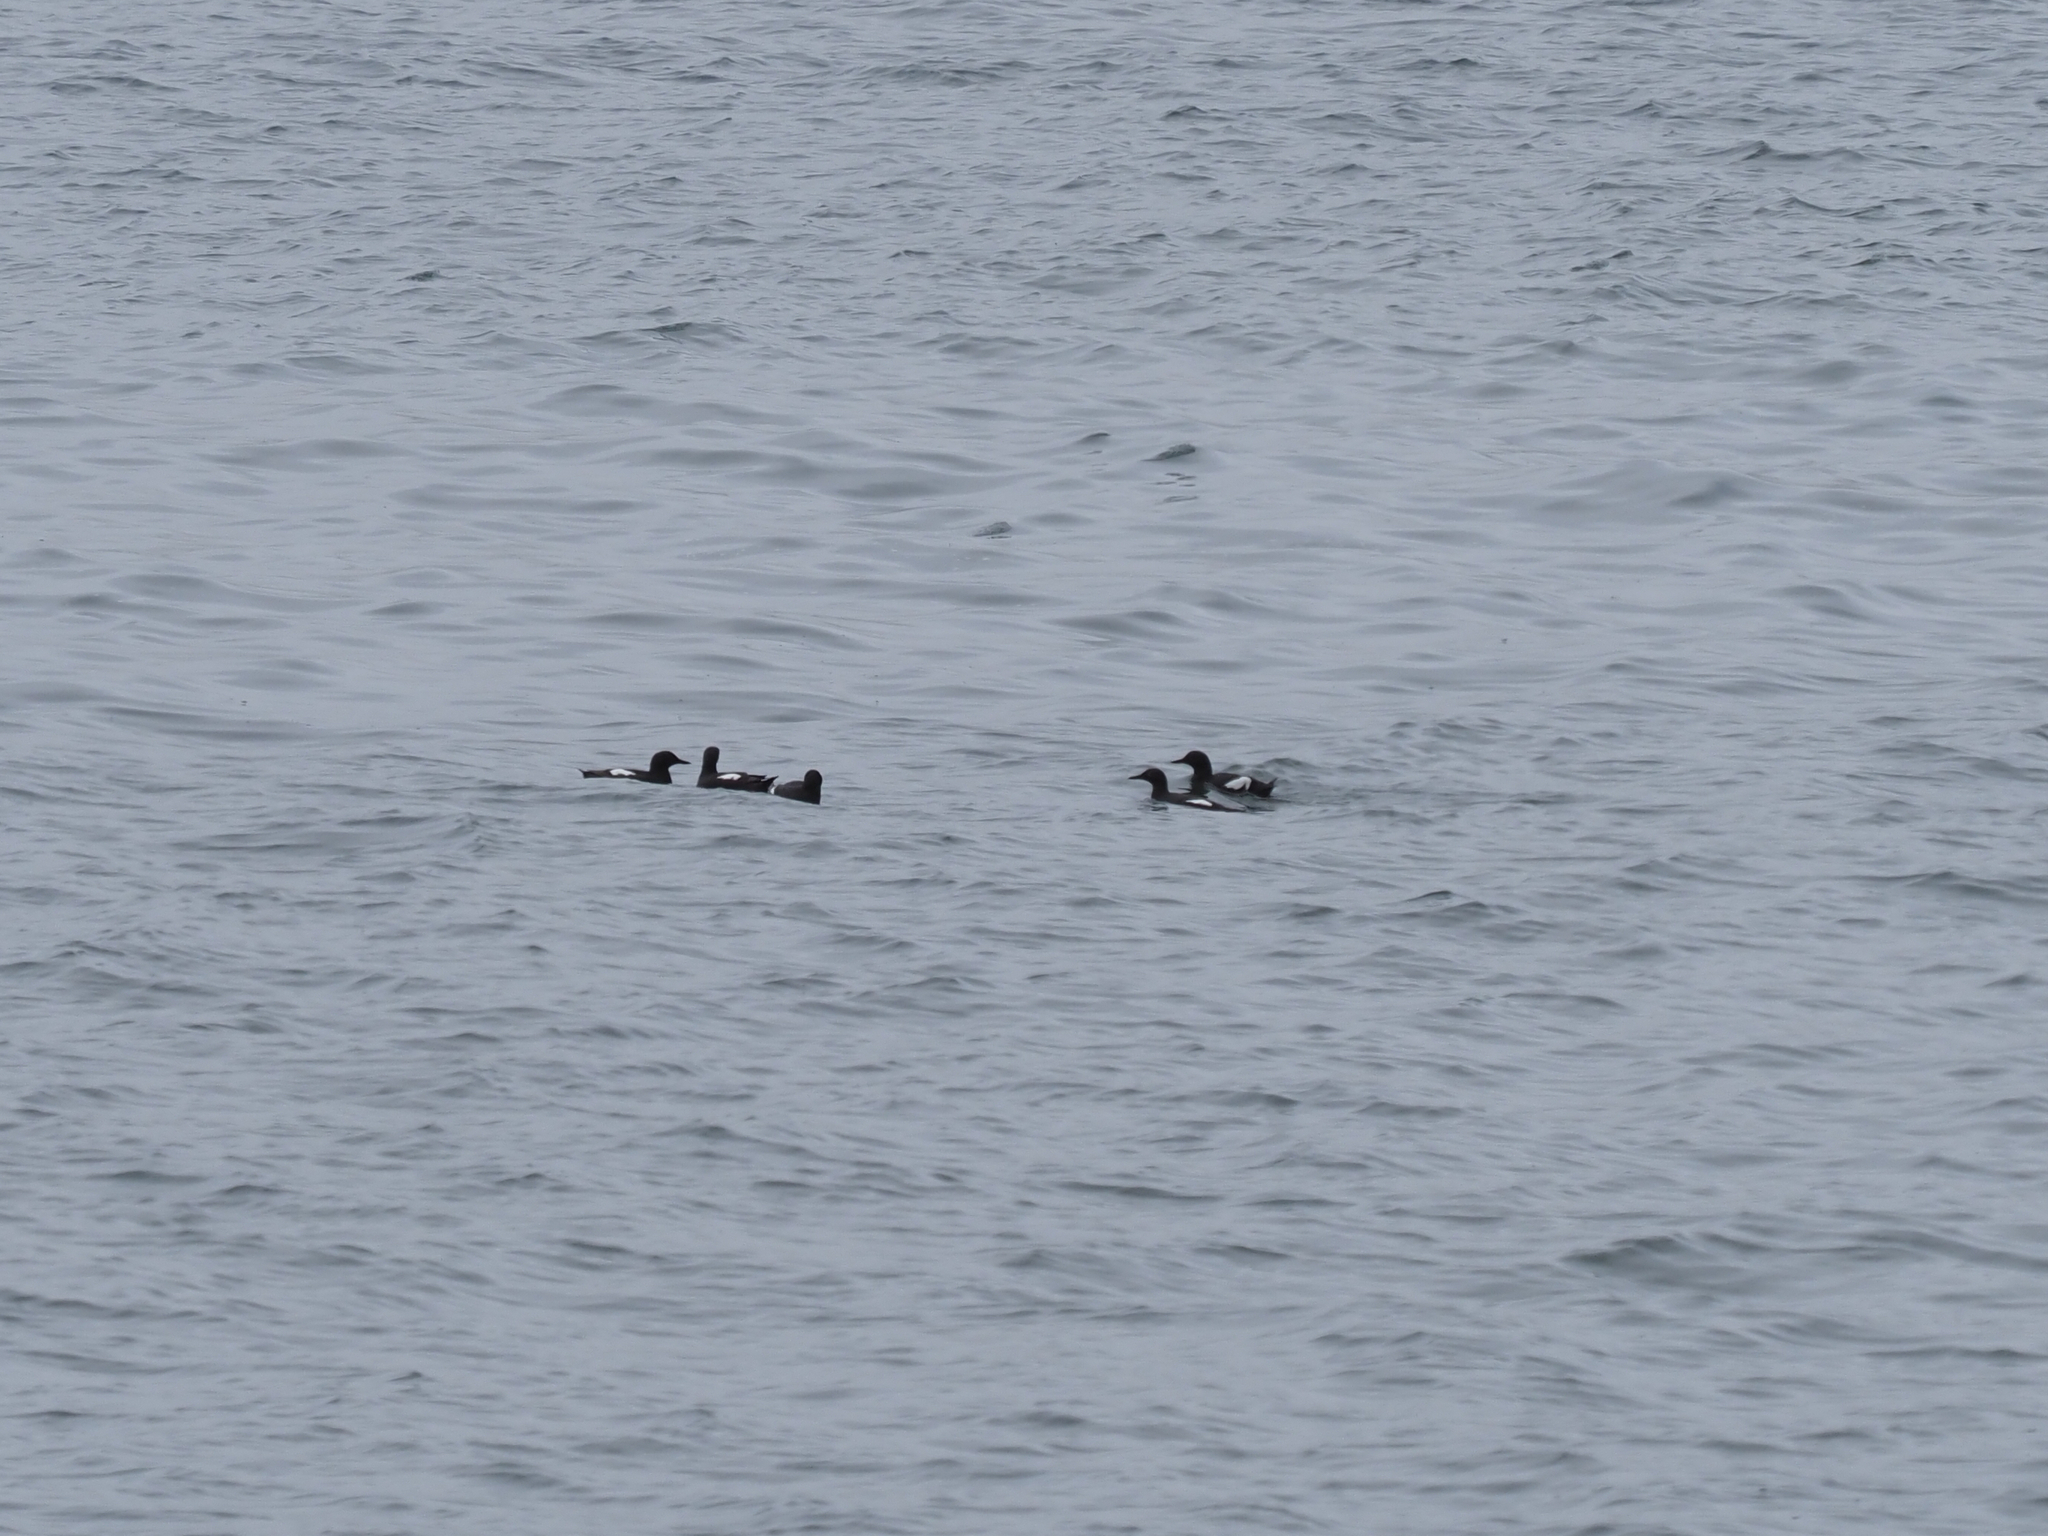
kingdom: Animalia
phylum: Chordata
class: Aves
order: Charadriiformes
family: Alcidae
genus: Cepphus
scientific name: Cepphus columba
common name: Pigeon guillemot
